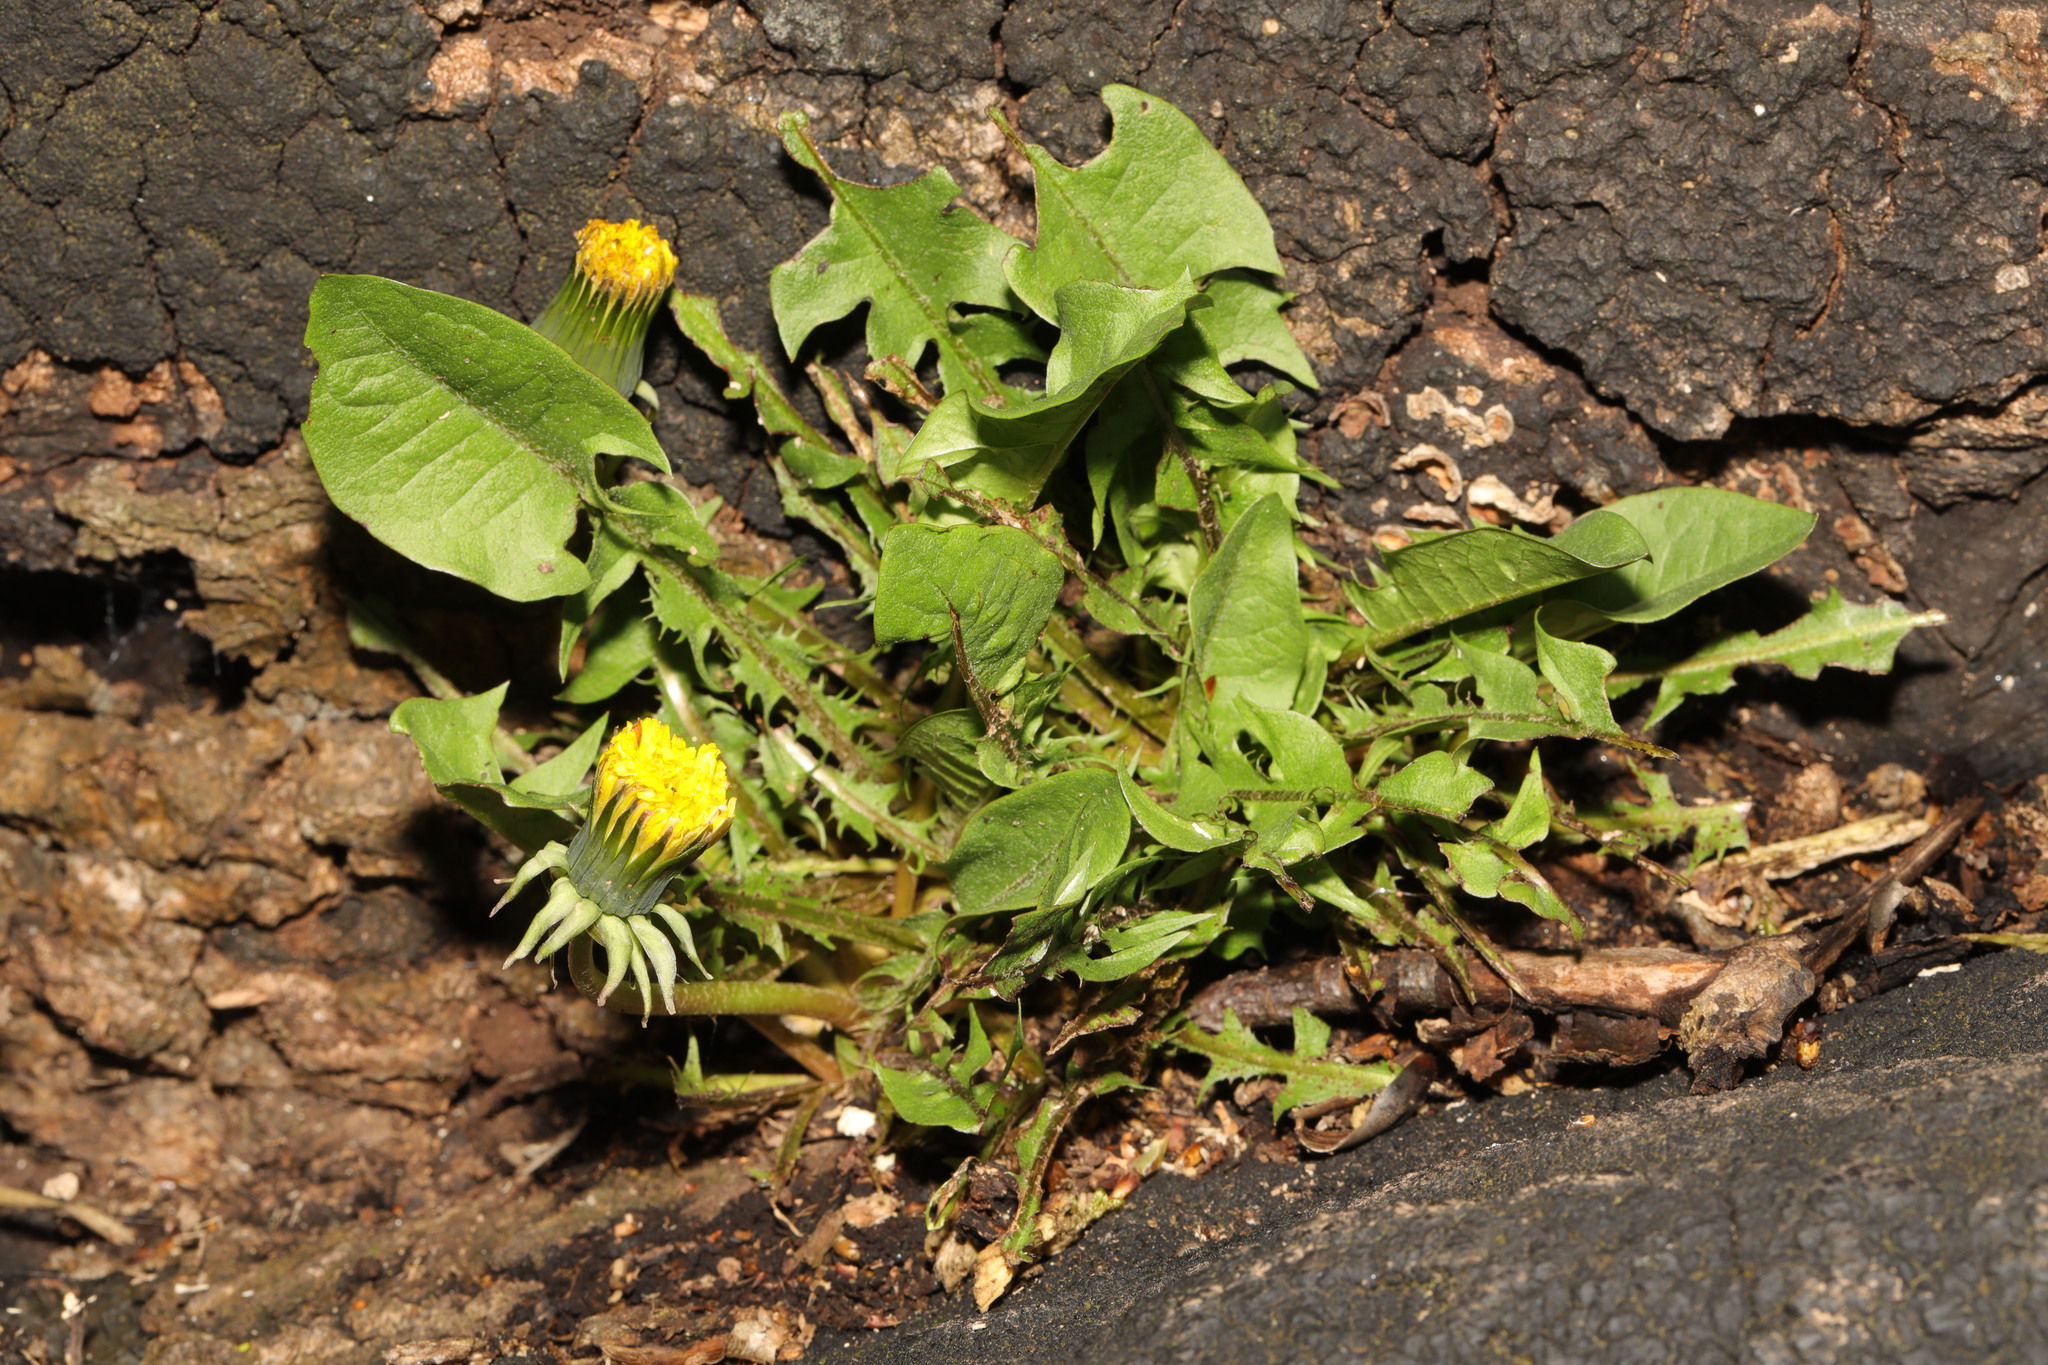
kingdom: Plantae
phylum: Tracheophyta
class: Magnoliopsida
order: Asterales
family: Asteraceae
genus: Taraxacum
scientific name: Taraxacum officinale
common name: Common dandelion
